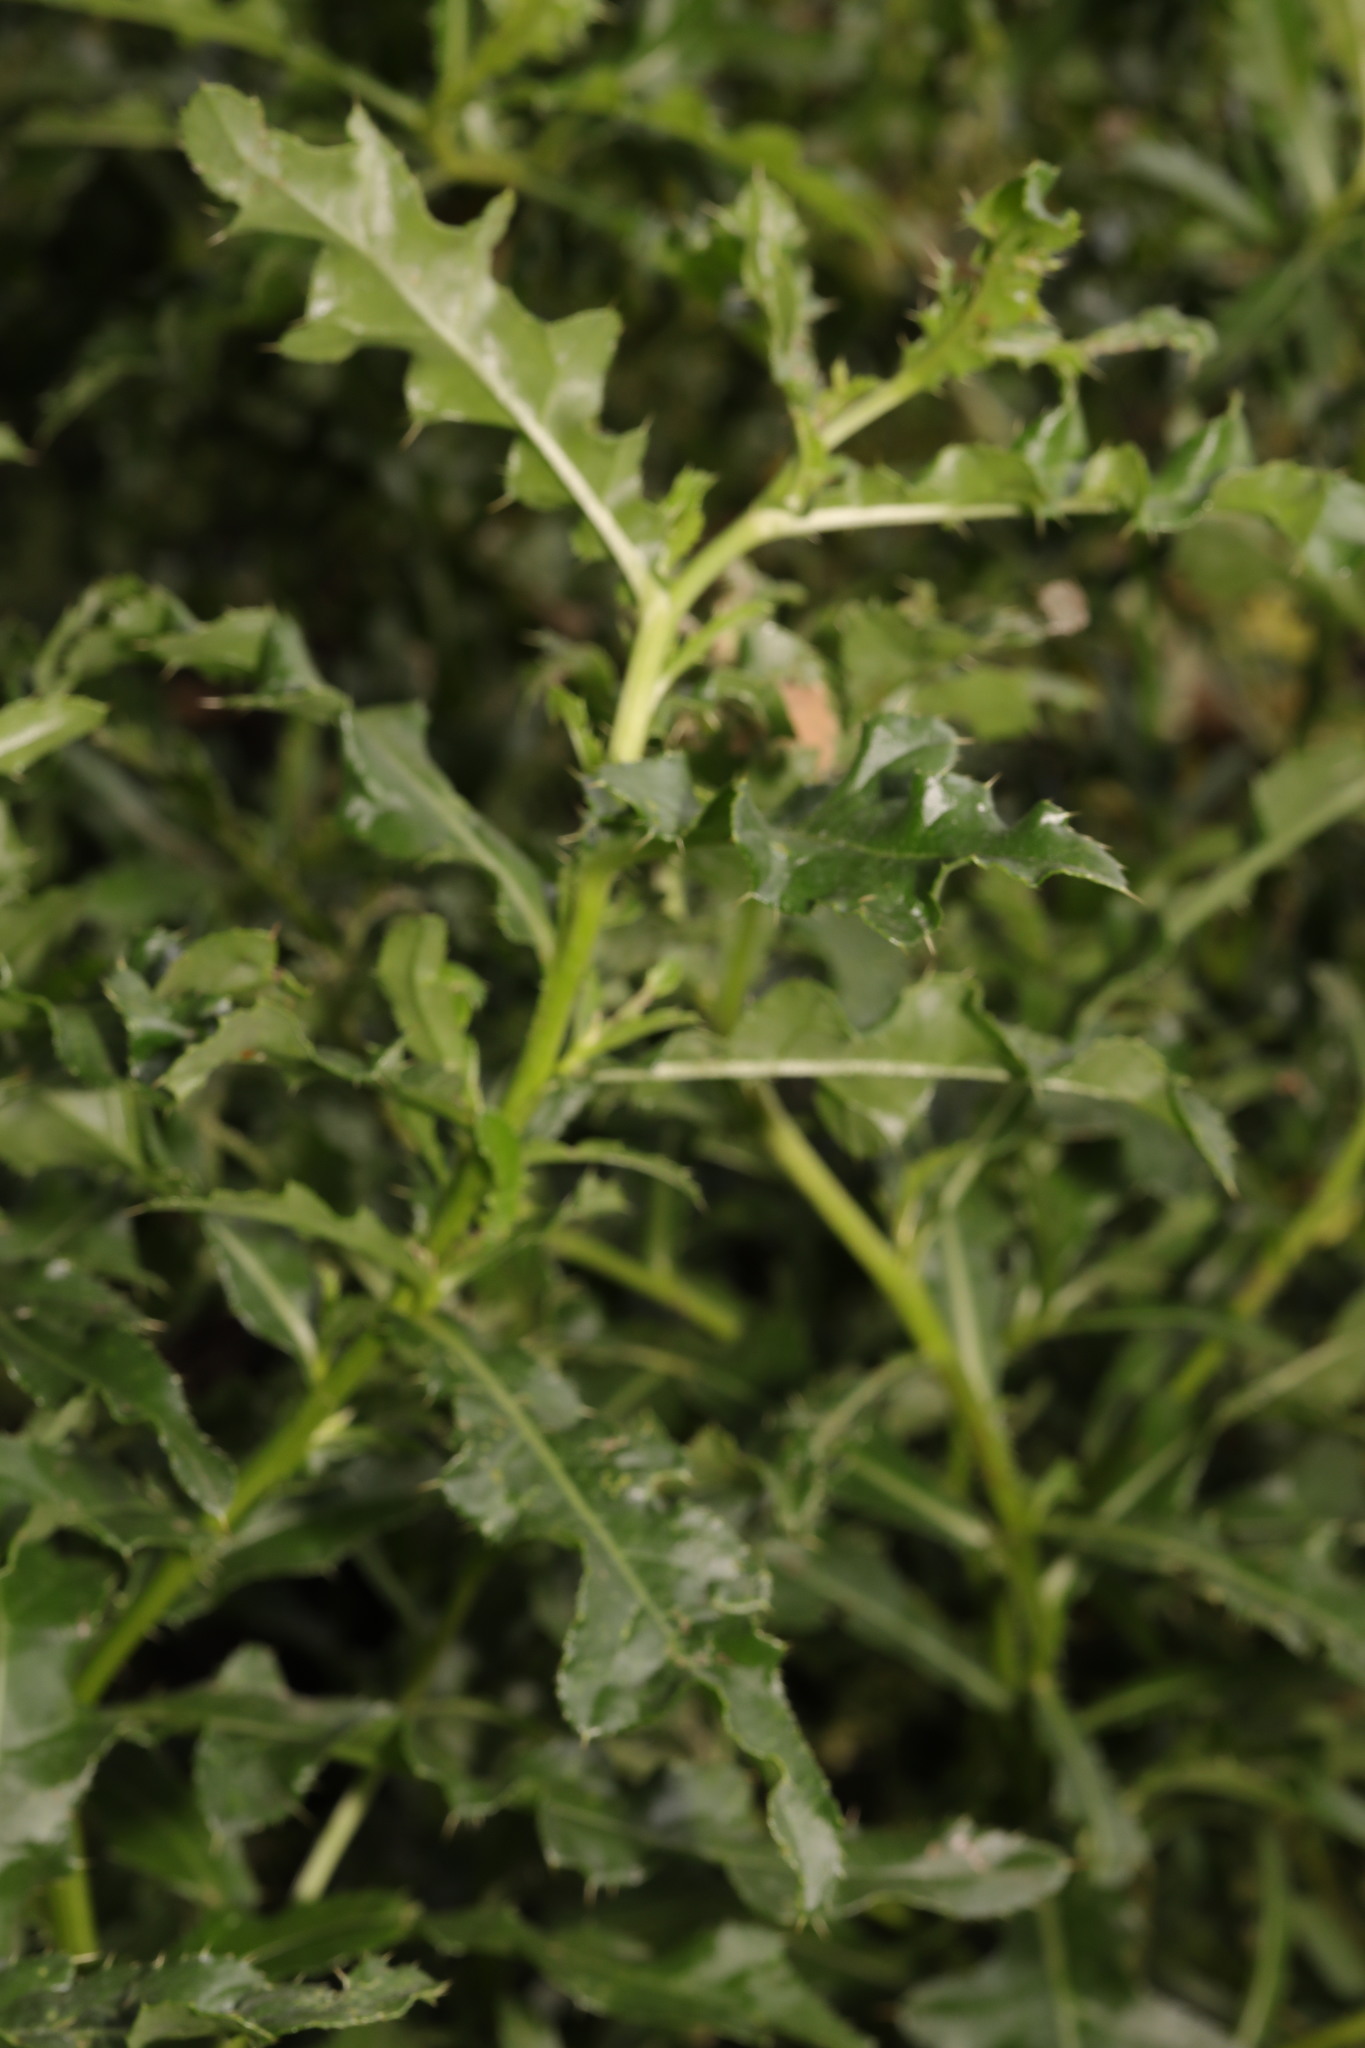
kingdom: Plantae
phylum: Tracheophyta
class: Magnoliopsida
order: Asterales
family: Asteraceae
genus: Cirsium
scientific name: Cirsium arvense
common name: Creeping thistle
